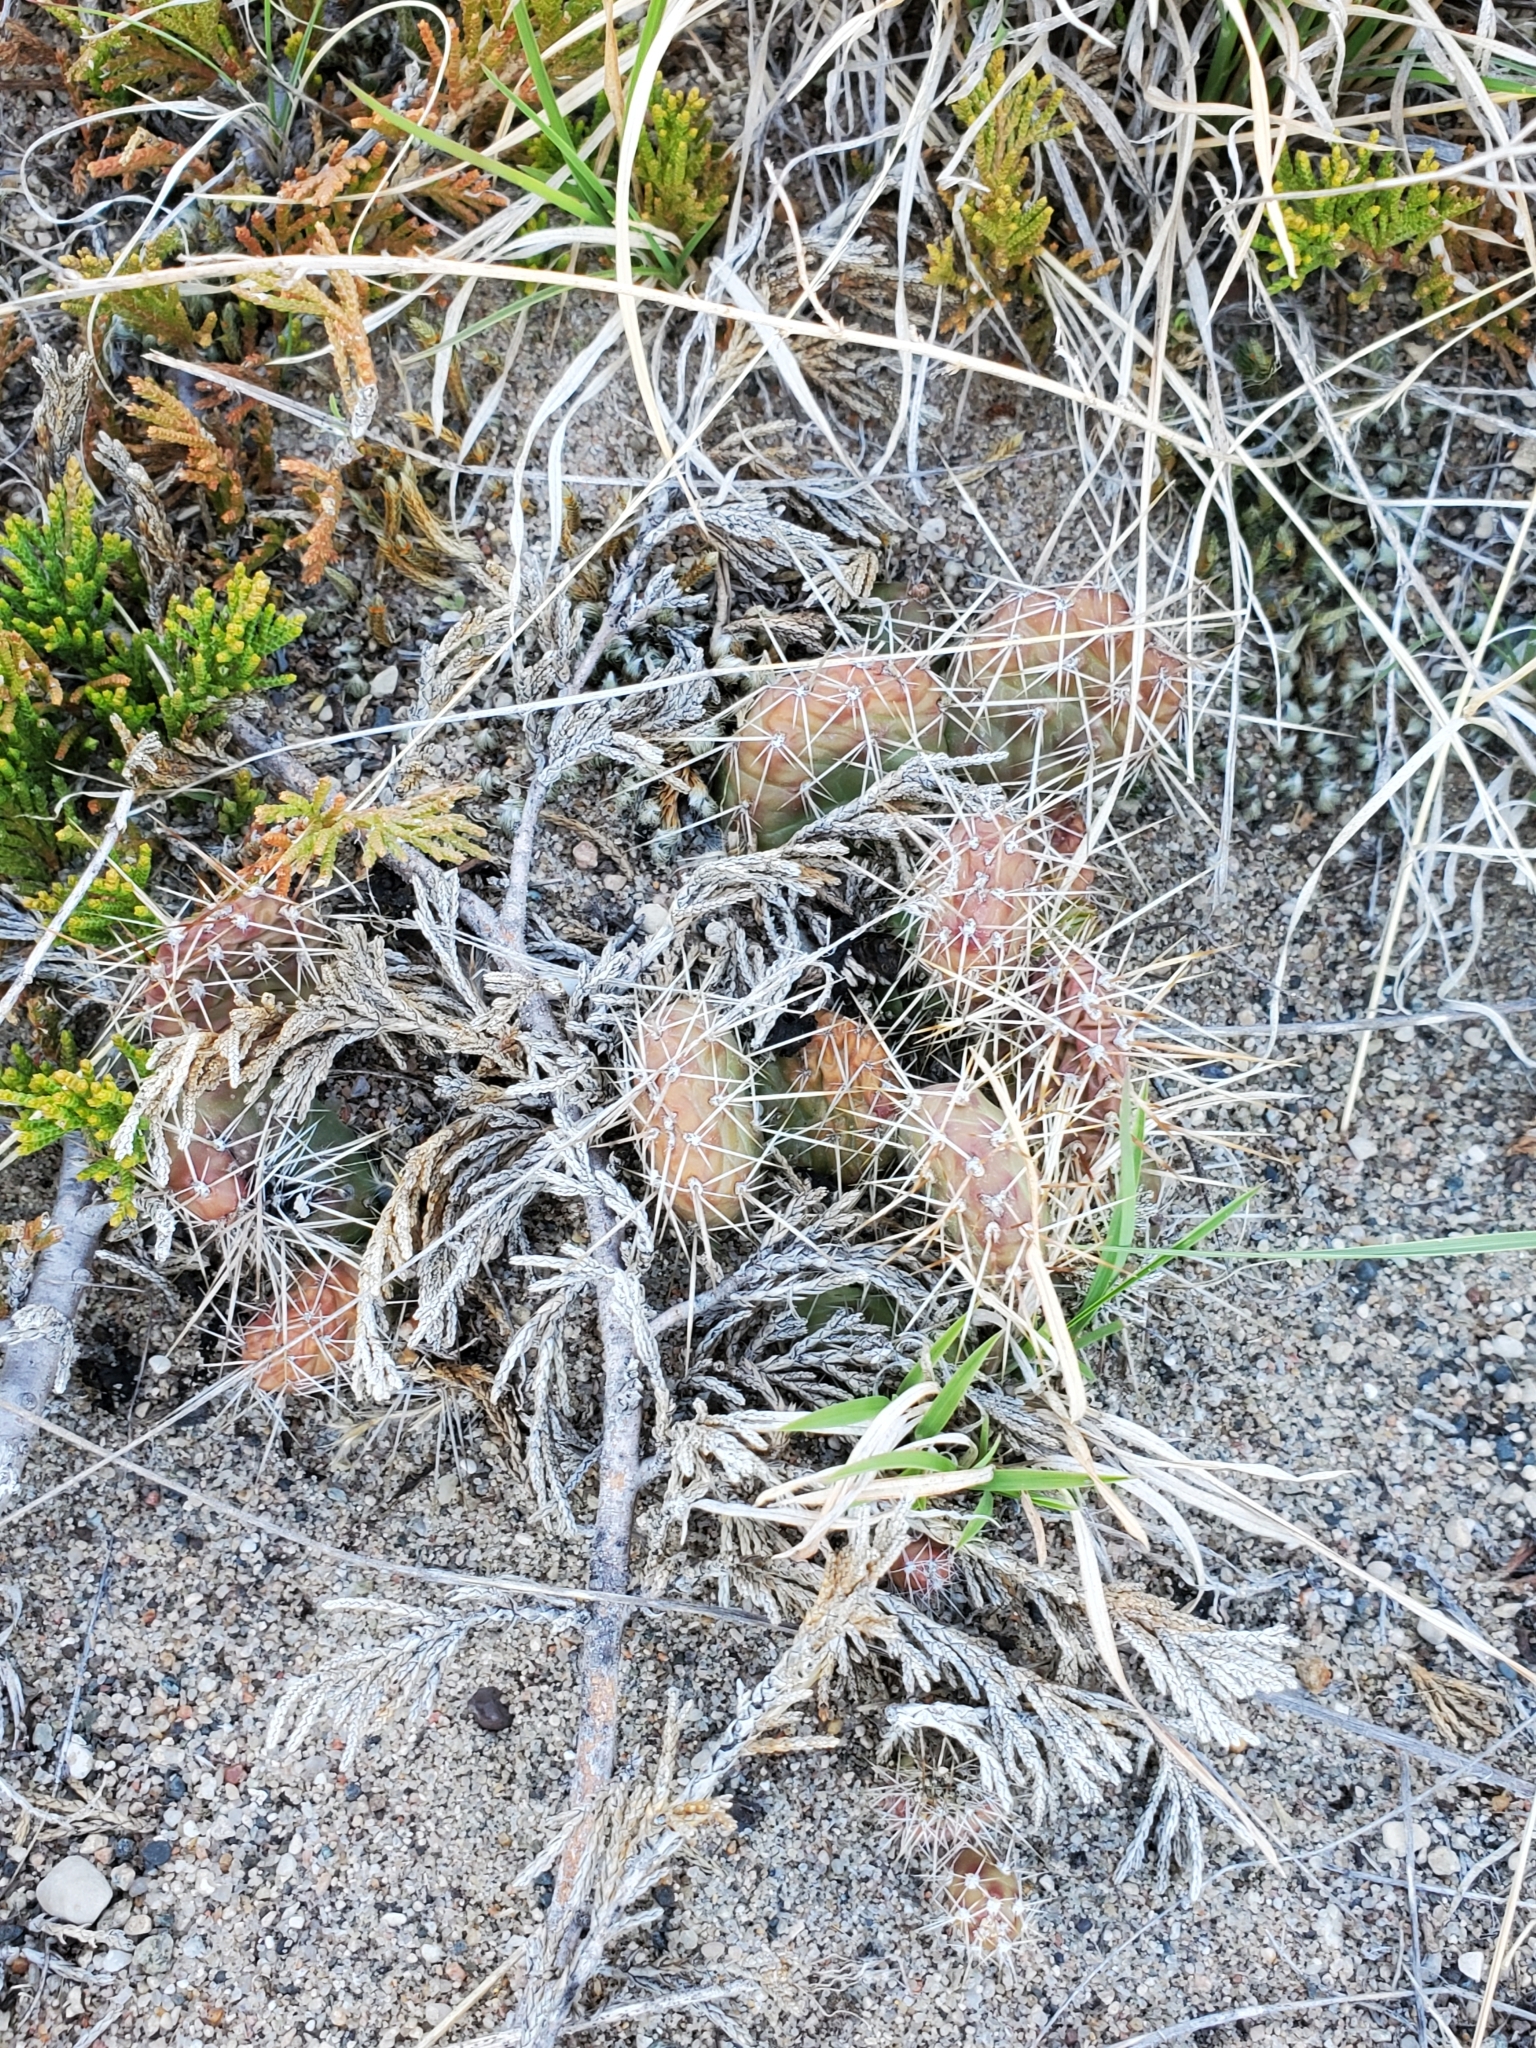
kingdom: Plantae
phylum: Tracheophyta
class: Magnoliopsida
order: Caryophyllales
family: Cactaceae
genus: Opuntia
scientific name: Opuntia fragilis
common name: Brittle cactus
